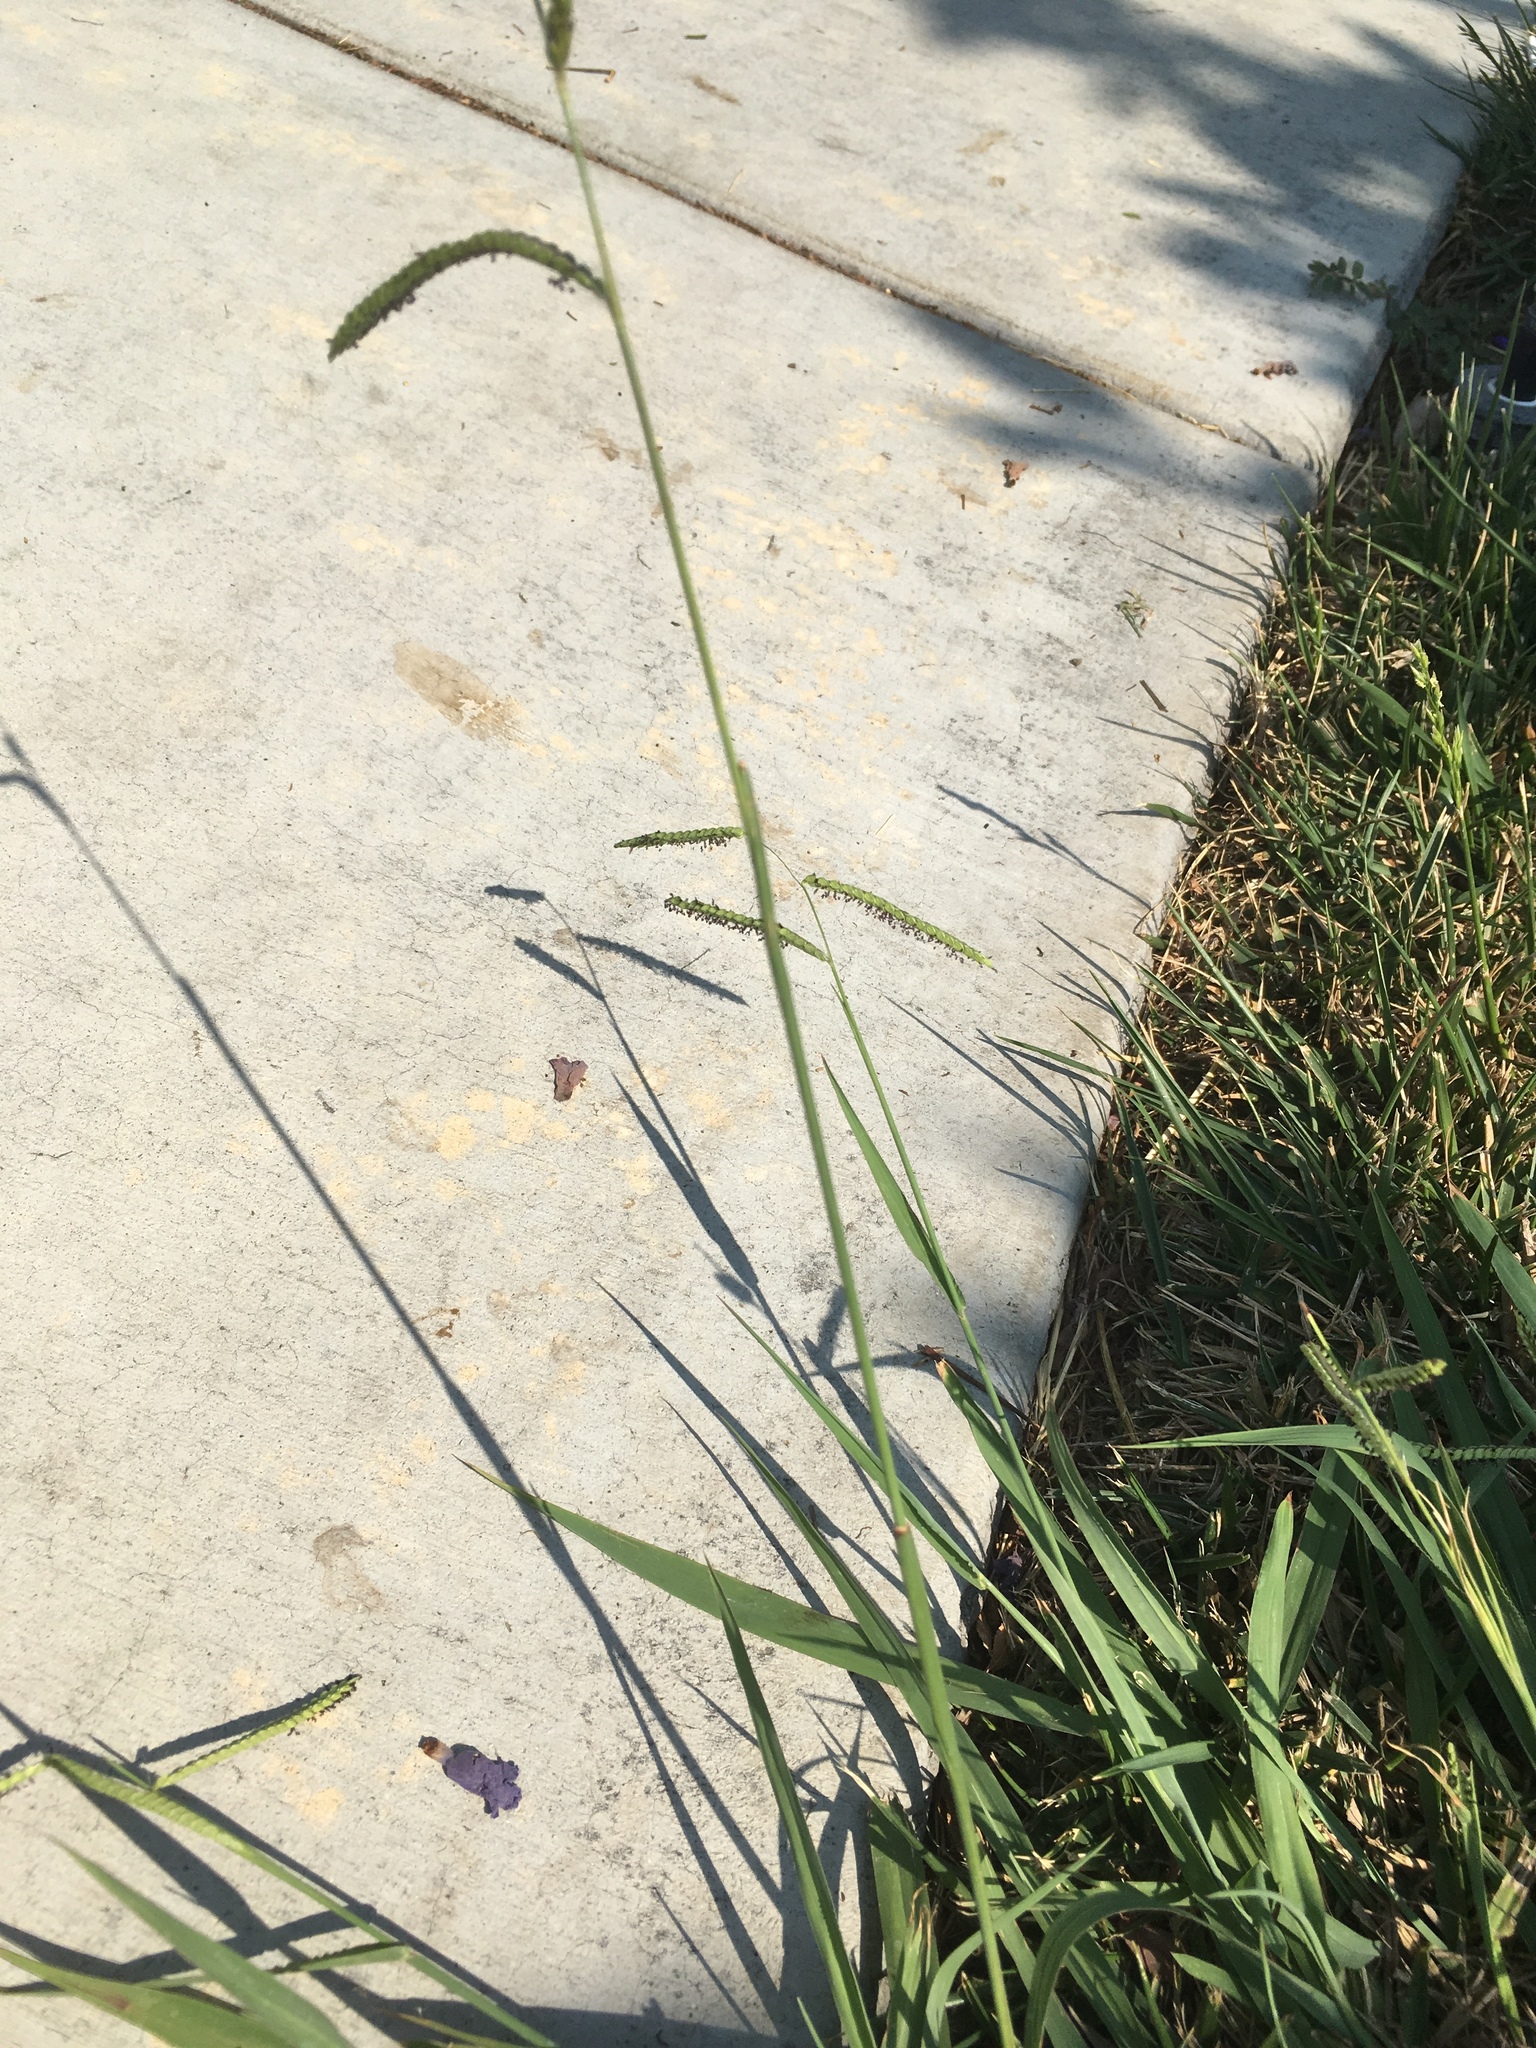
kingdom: Plantae
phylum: Tracheophyta
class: Liliopsida
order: Poales
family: Poaceae
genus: Paspalum
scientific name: Paspalum dilatatum
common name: Dallisgrass
